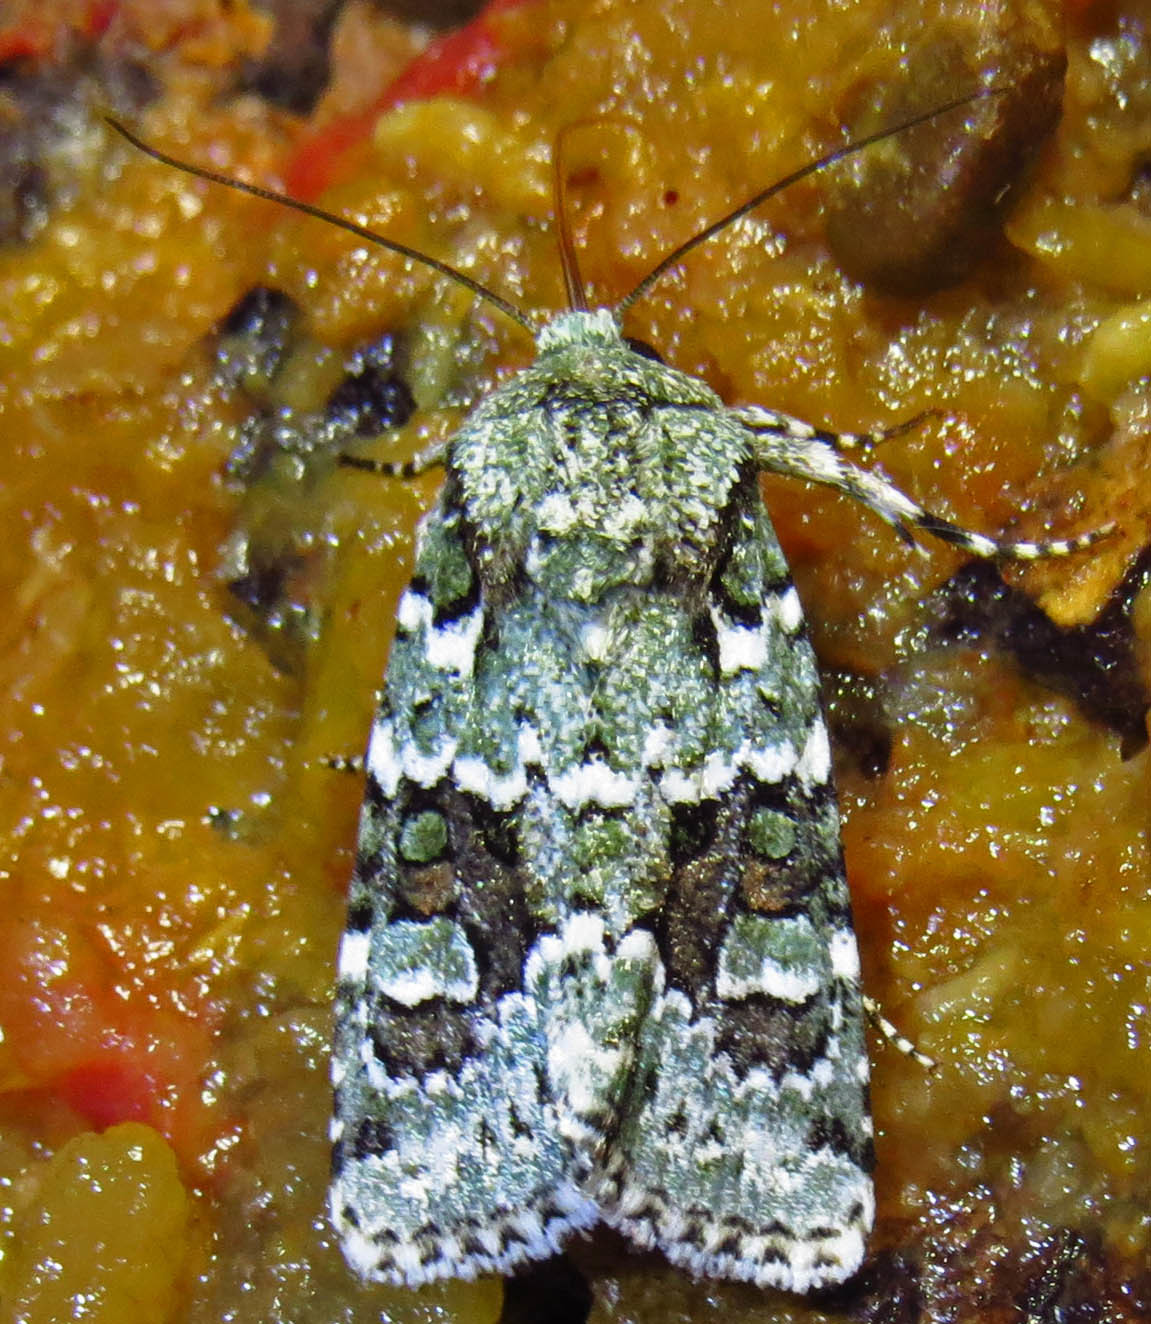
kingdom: Animalia
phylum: Arthropoda
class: Insecta
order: Lepidoptera
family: Noctuidae
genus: Lacinipolia
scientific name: Lacinipolia laudabilis
